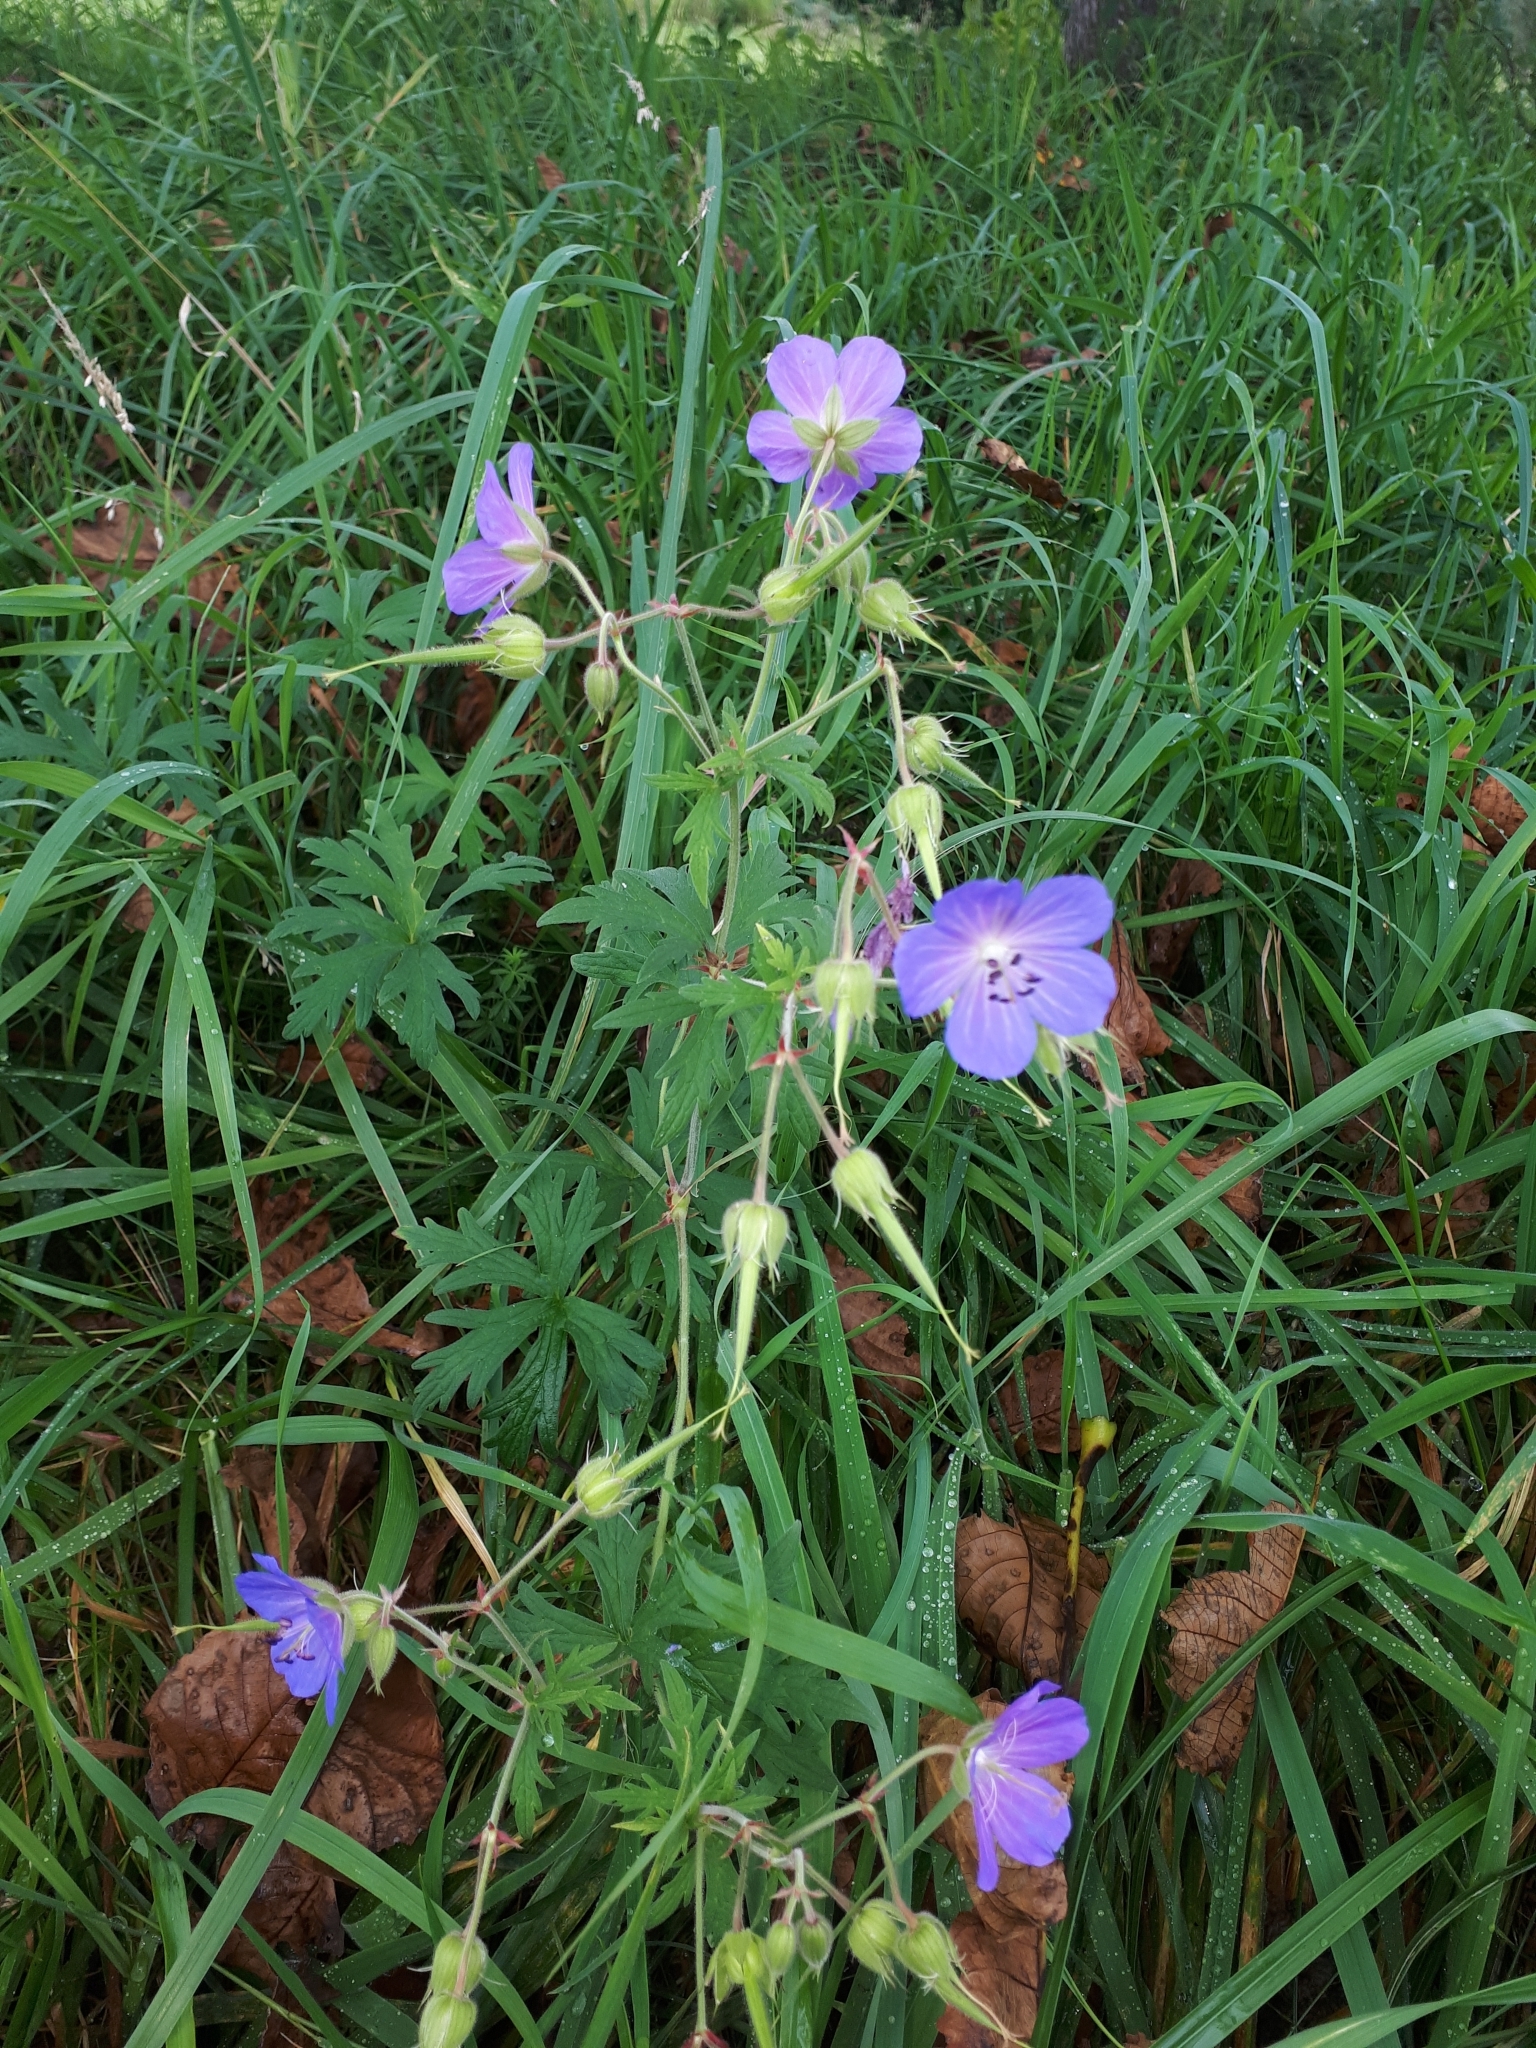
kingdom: Plantae
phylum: Tracheophyta
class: Magnoliopsida
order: Geraniales
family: Geraniaceae
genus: Geranium
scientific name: Geranium pratense
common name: Meadow crane's-bill
